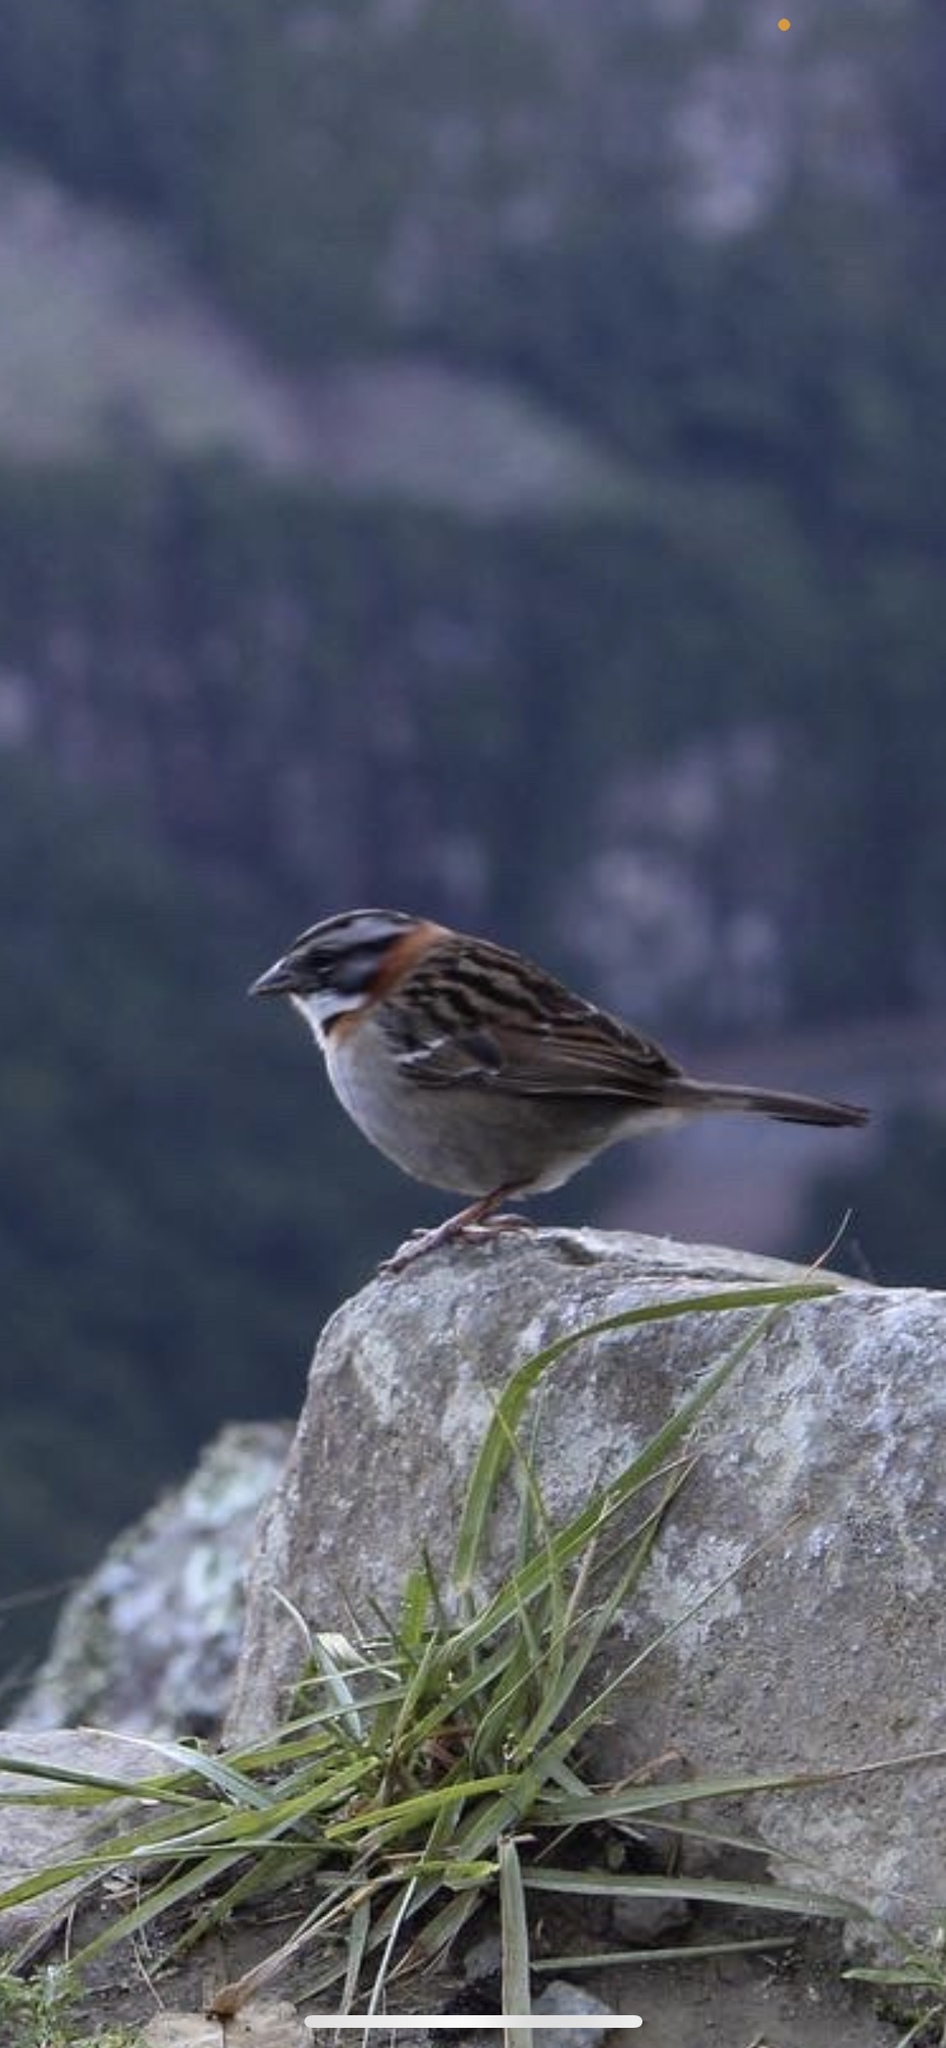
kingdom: Animalia
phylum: Chordata
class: Aves
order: Passeriformes
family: Passerellidae
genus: Zonotrichia
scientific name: Zonotrichia capensis
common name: Rufous-collared sparrow
